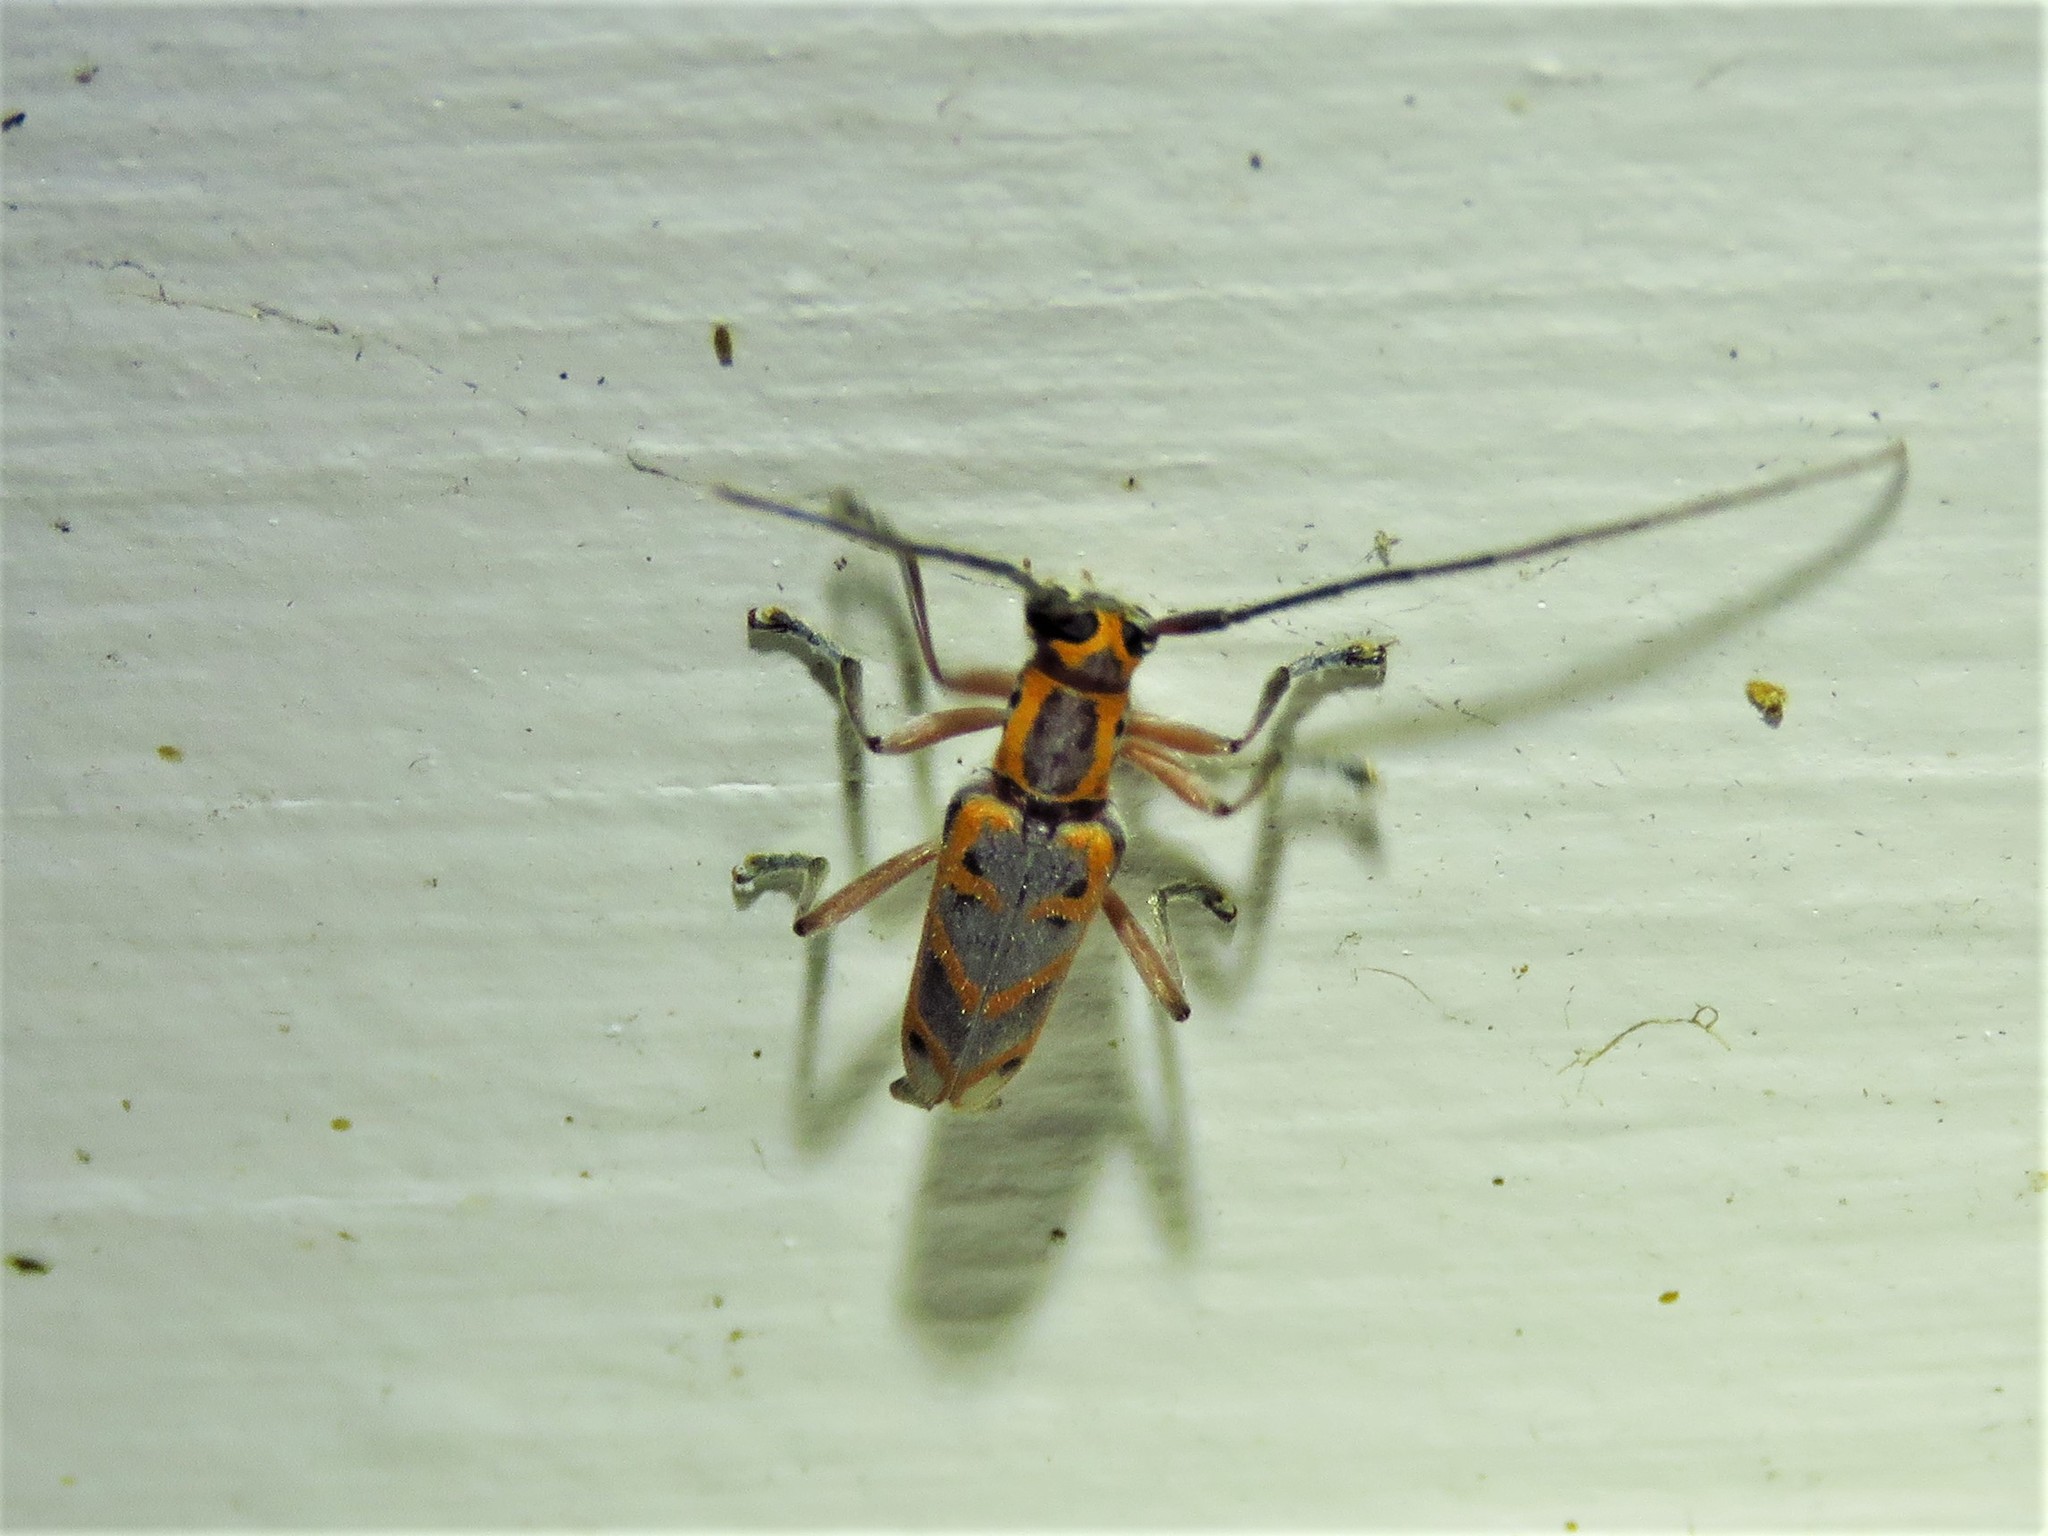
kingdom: Animalia
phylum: Arthropoda
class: Insecta
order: Coleoptera
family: Cerambycidae
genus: Saperda
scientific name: Saperda tridentata
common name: Elm borer
